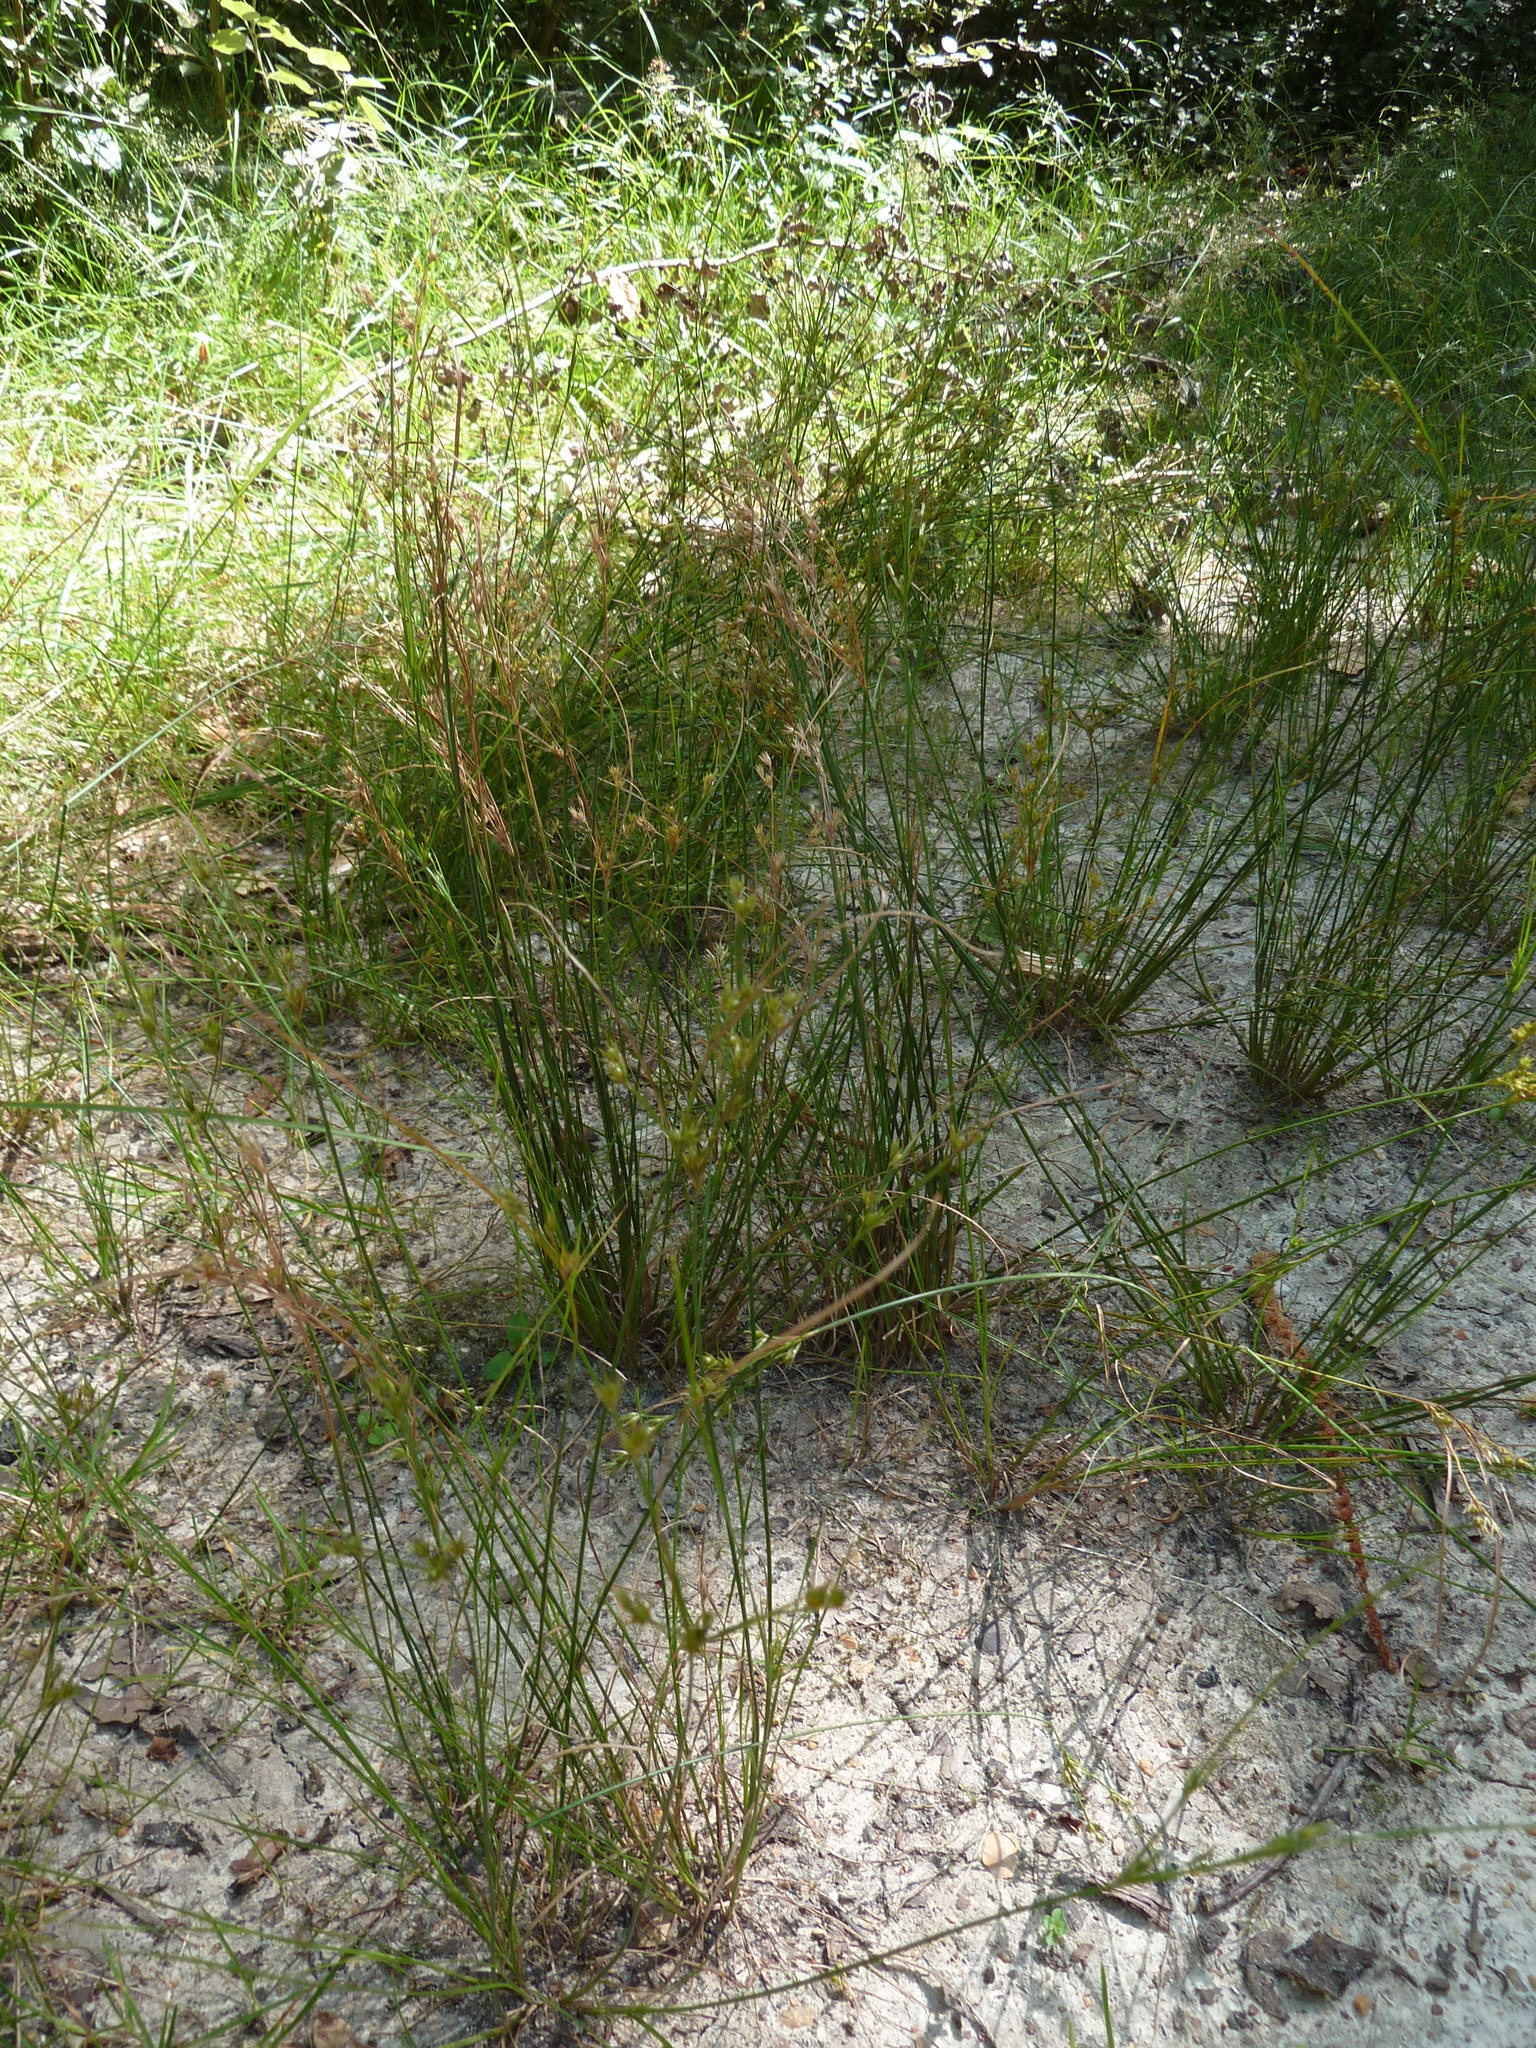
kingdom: Plantae
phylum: Tracheophyta
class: Liliopsida
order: Poales
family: Juncaceae
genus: Juncus
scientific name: Juncus tenuis
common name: Slender rush
